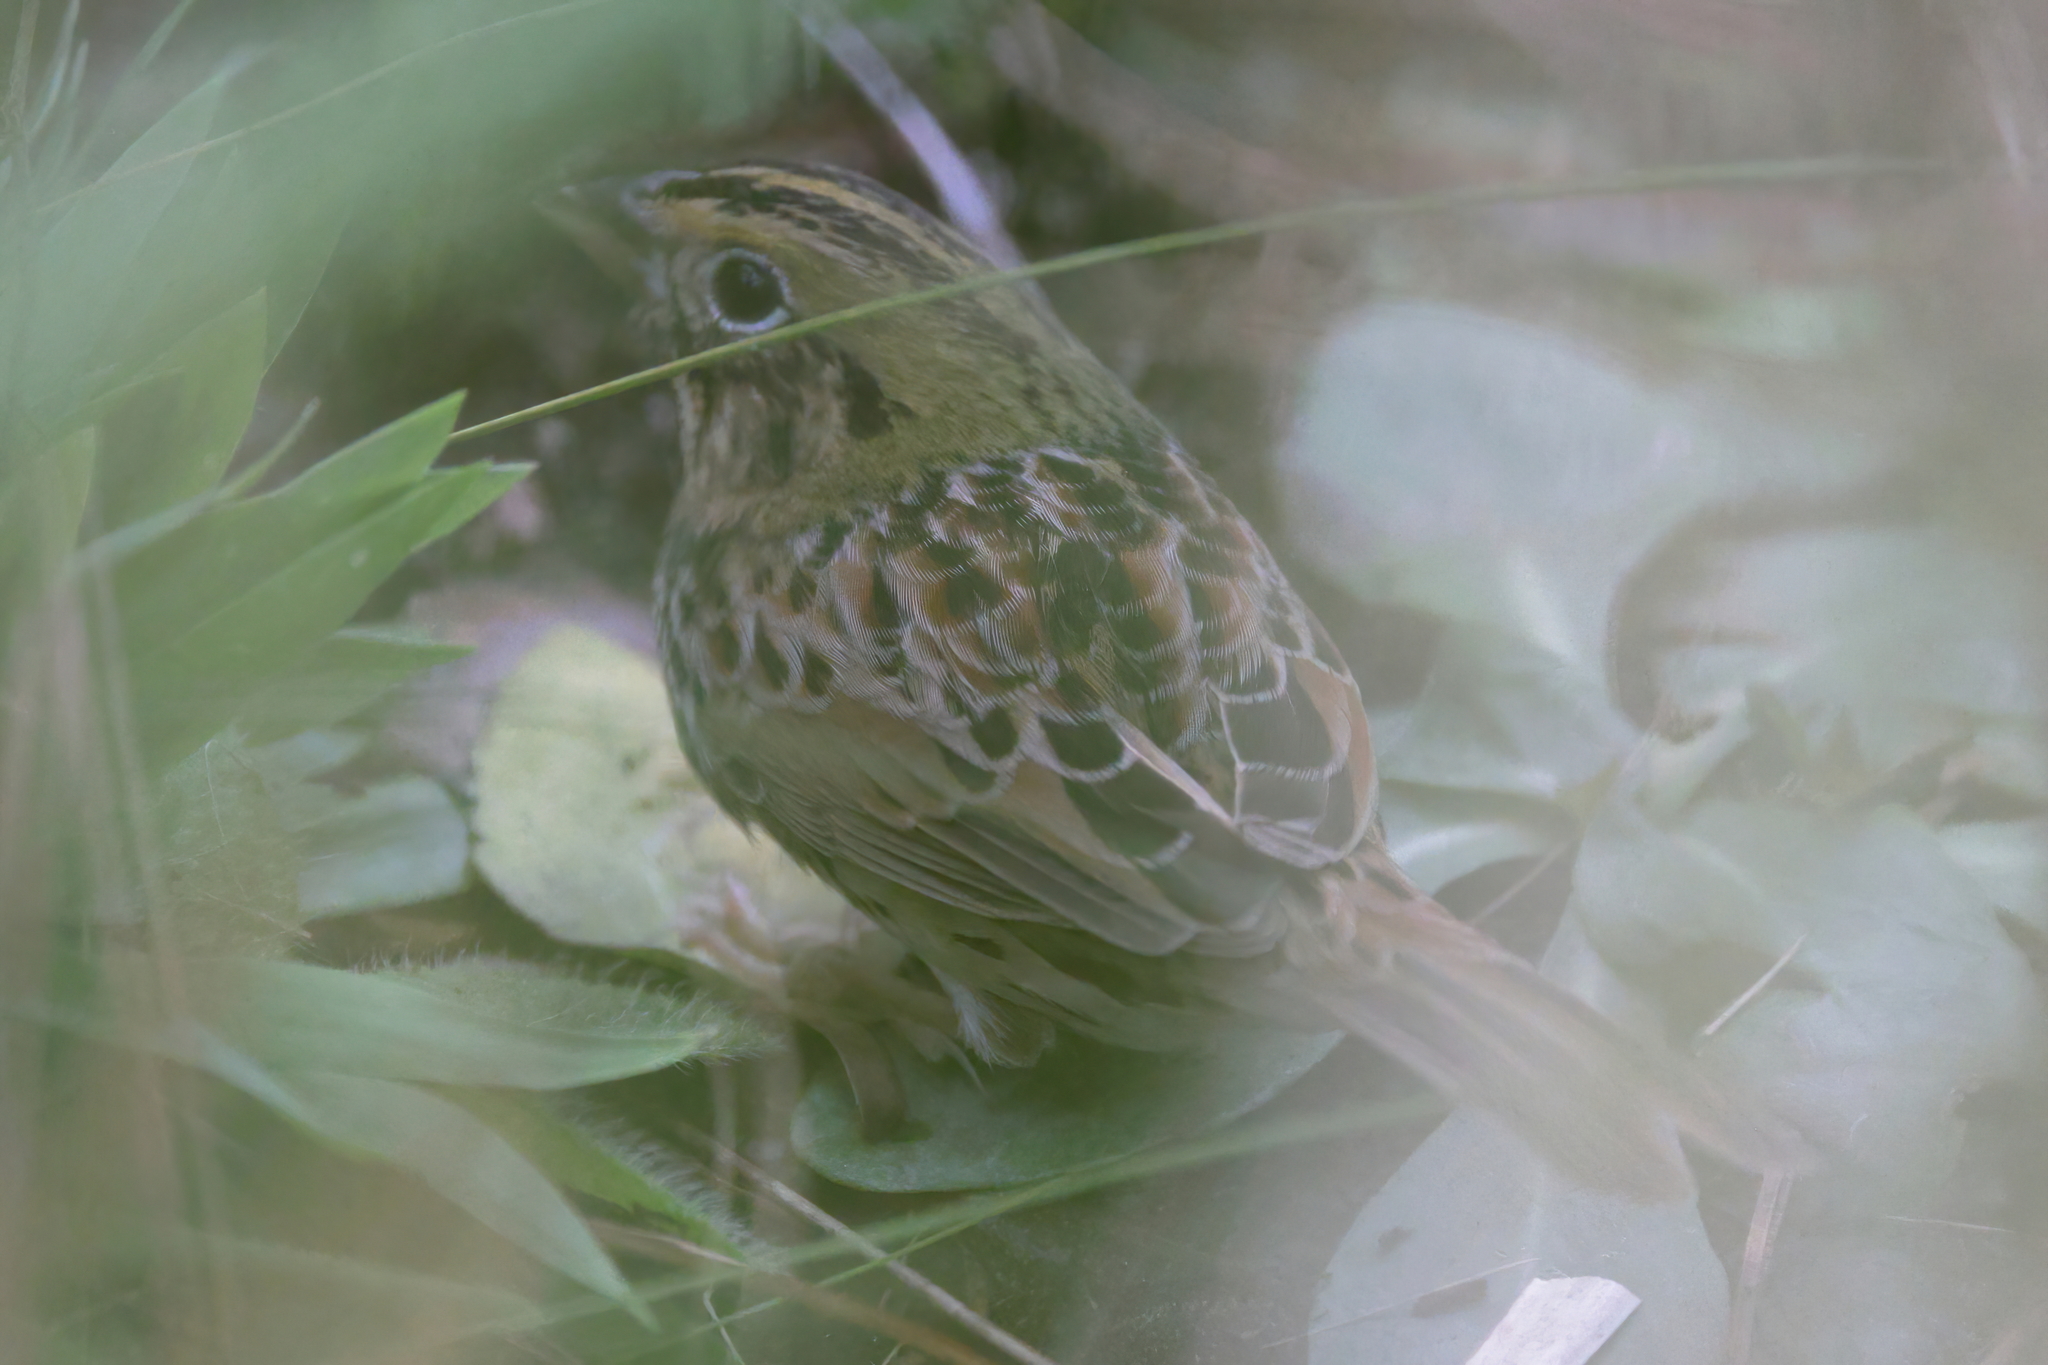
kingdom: Animalia
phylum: Chordata
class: Aves
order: Passeriformes
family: Passerellidae
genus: Centronyx
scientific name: Centronyx henslowii
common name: Henslow's sparrow
